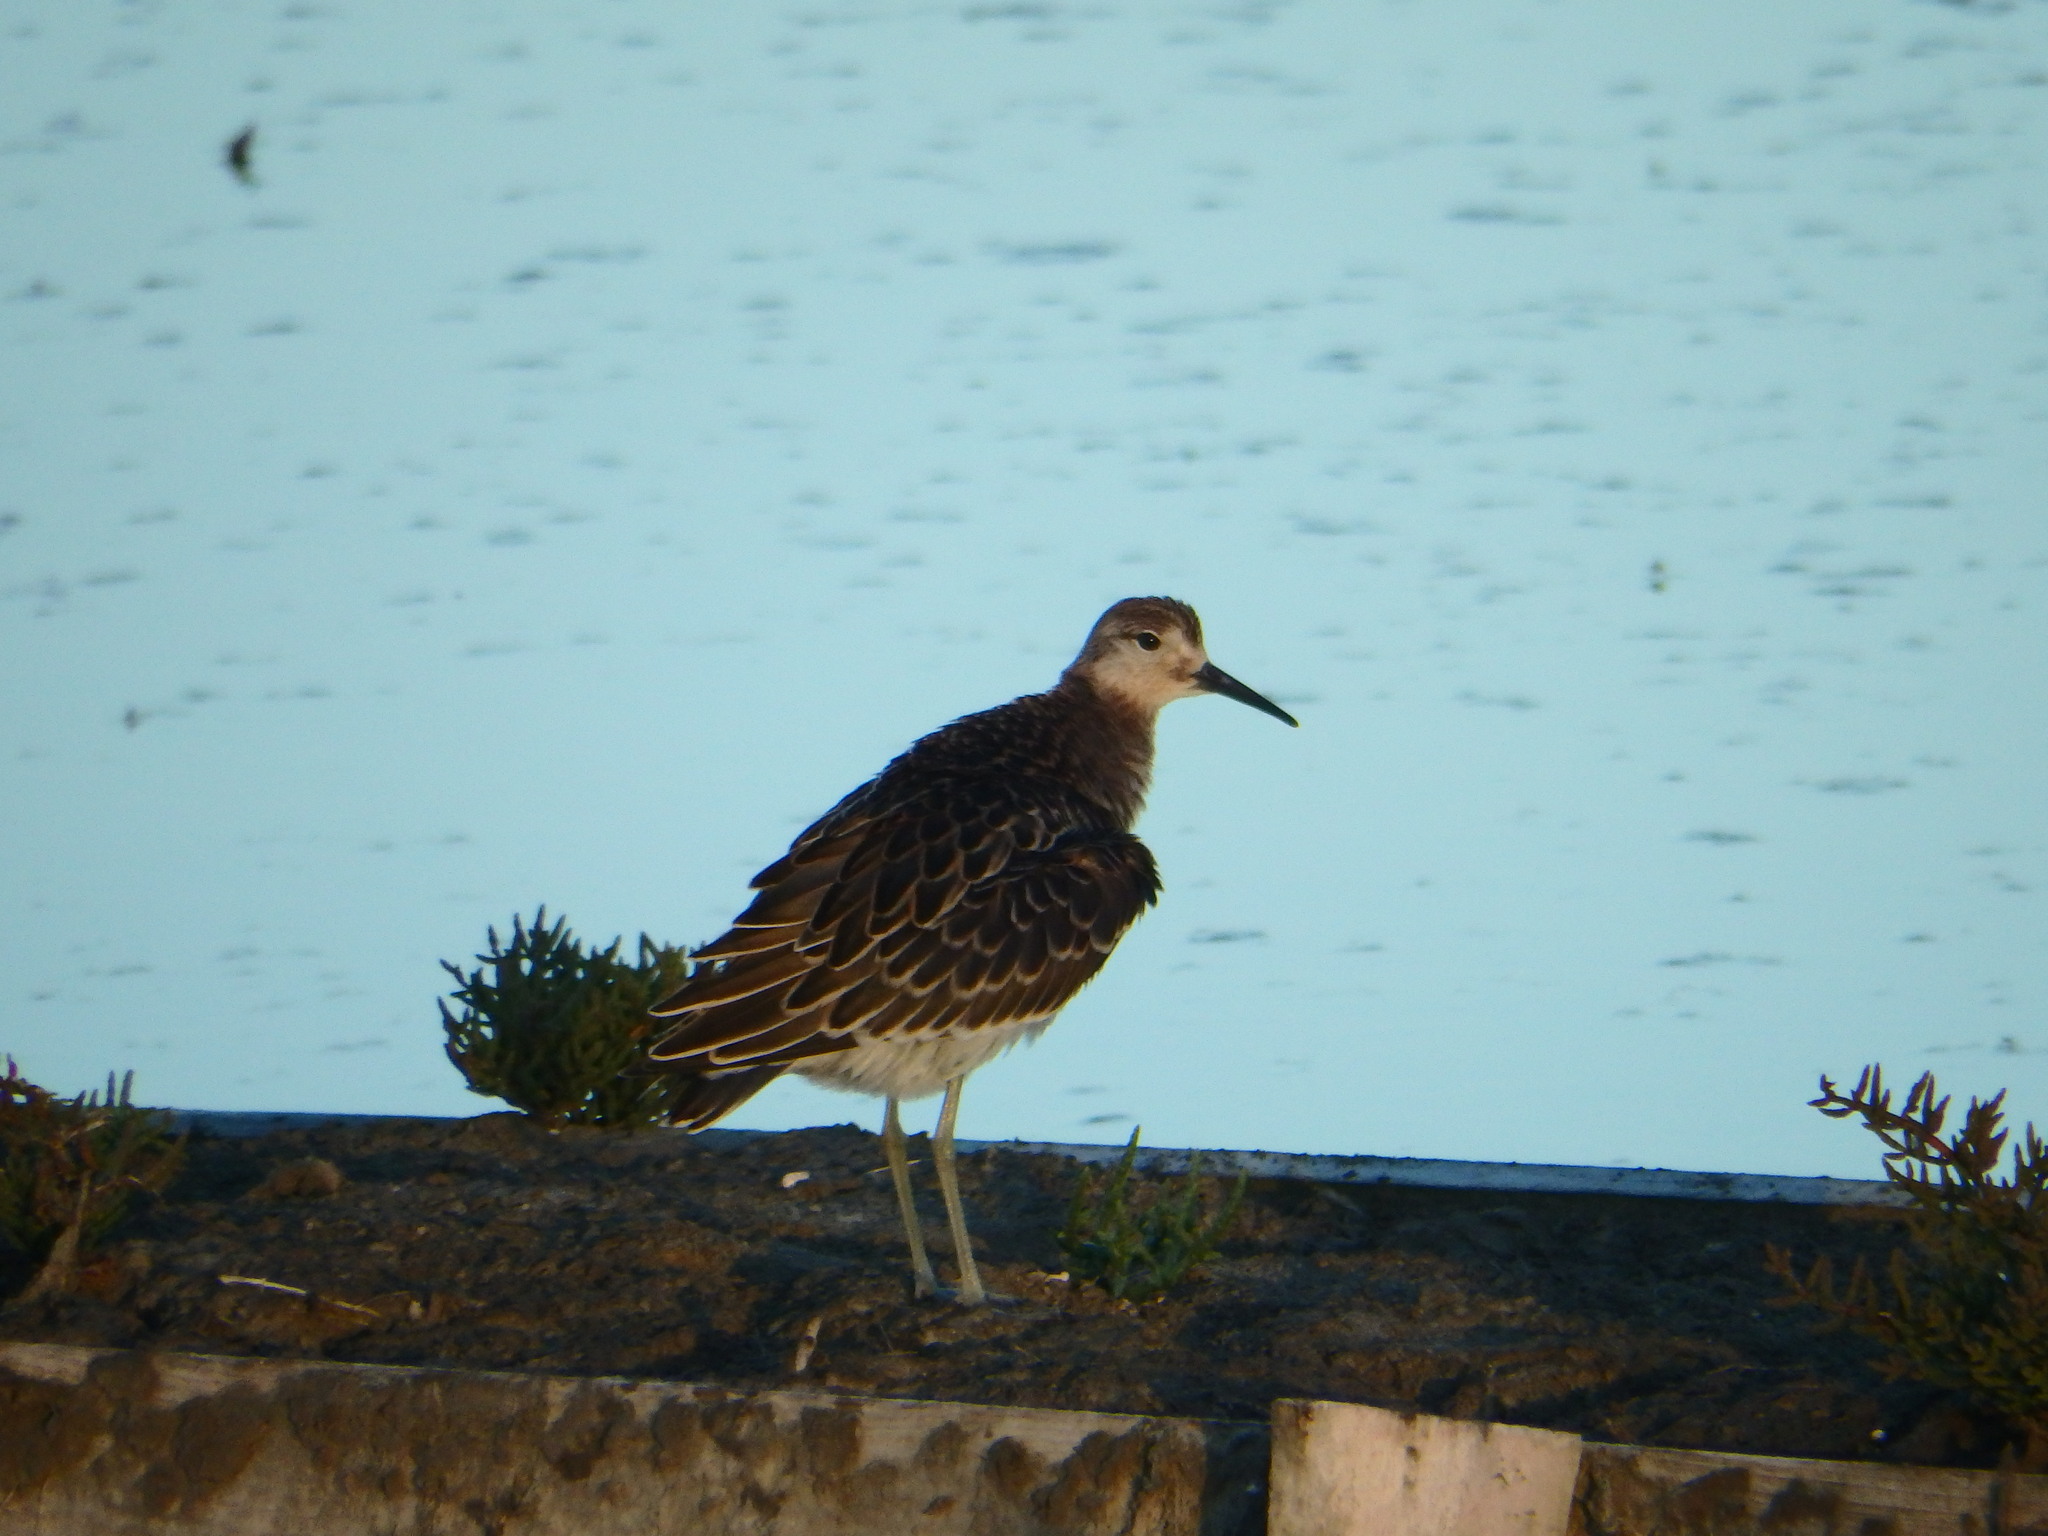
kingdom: Animalia
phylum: Chordata
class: Aves
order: Charadriiformes
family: Scolopacidae
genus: Calidris
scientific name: Calidris pugnax
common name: Ruff
